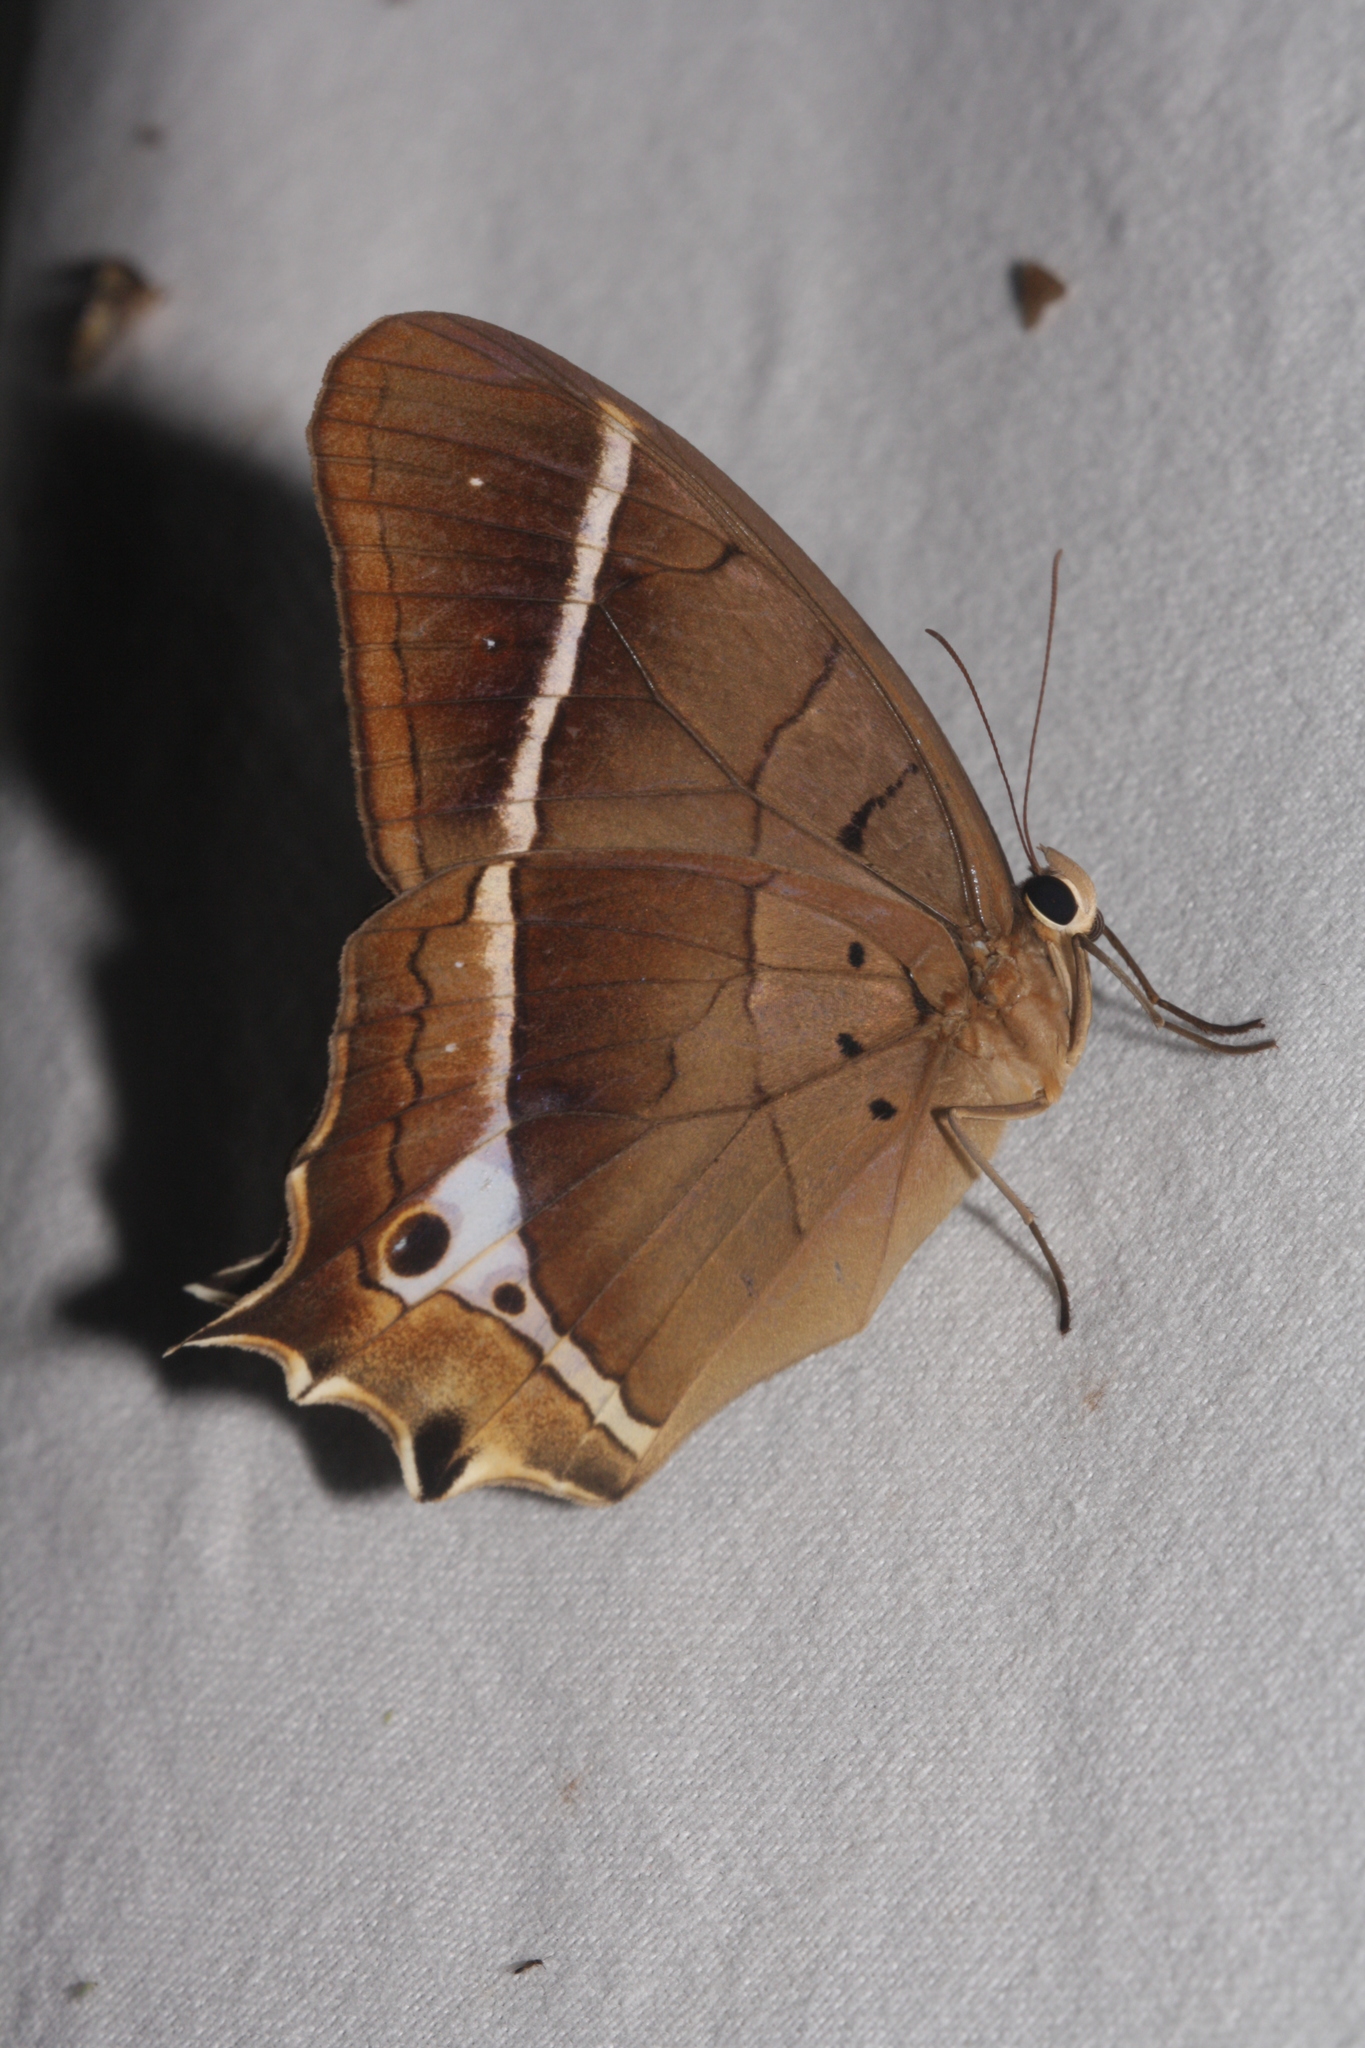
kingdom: Animalia
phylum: Arthropoda
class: Insecta
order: Lepidoptera
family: Nymphalidae
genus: Antirrhea
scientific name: Antirrhea philaretes
